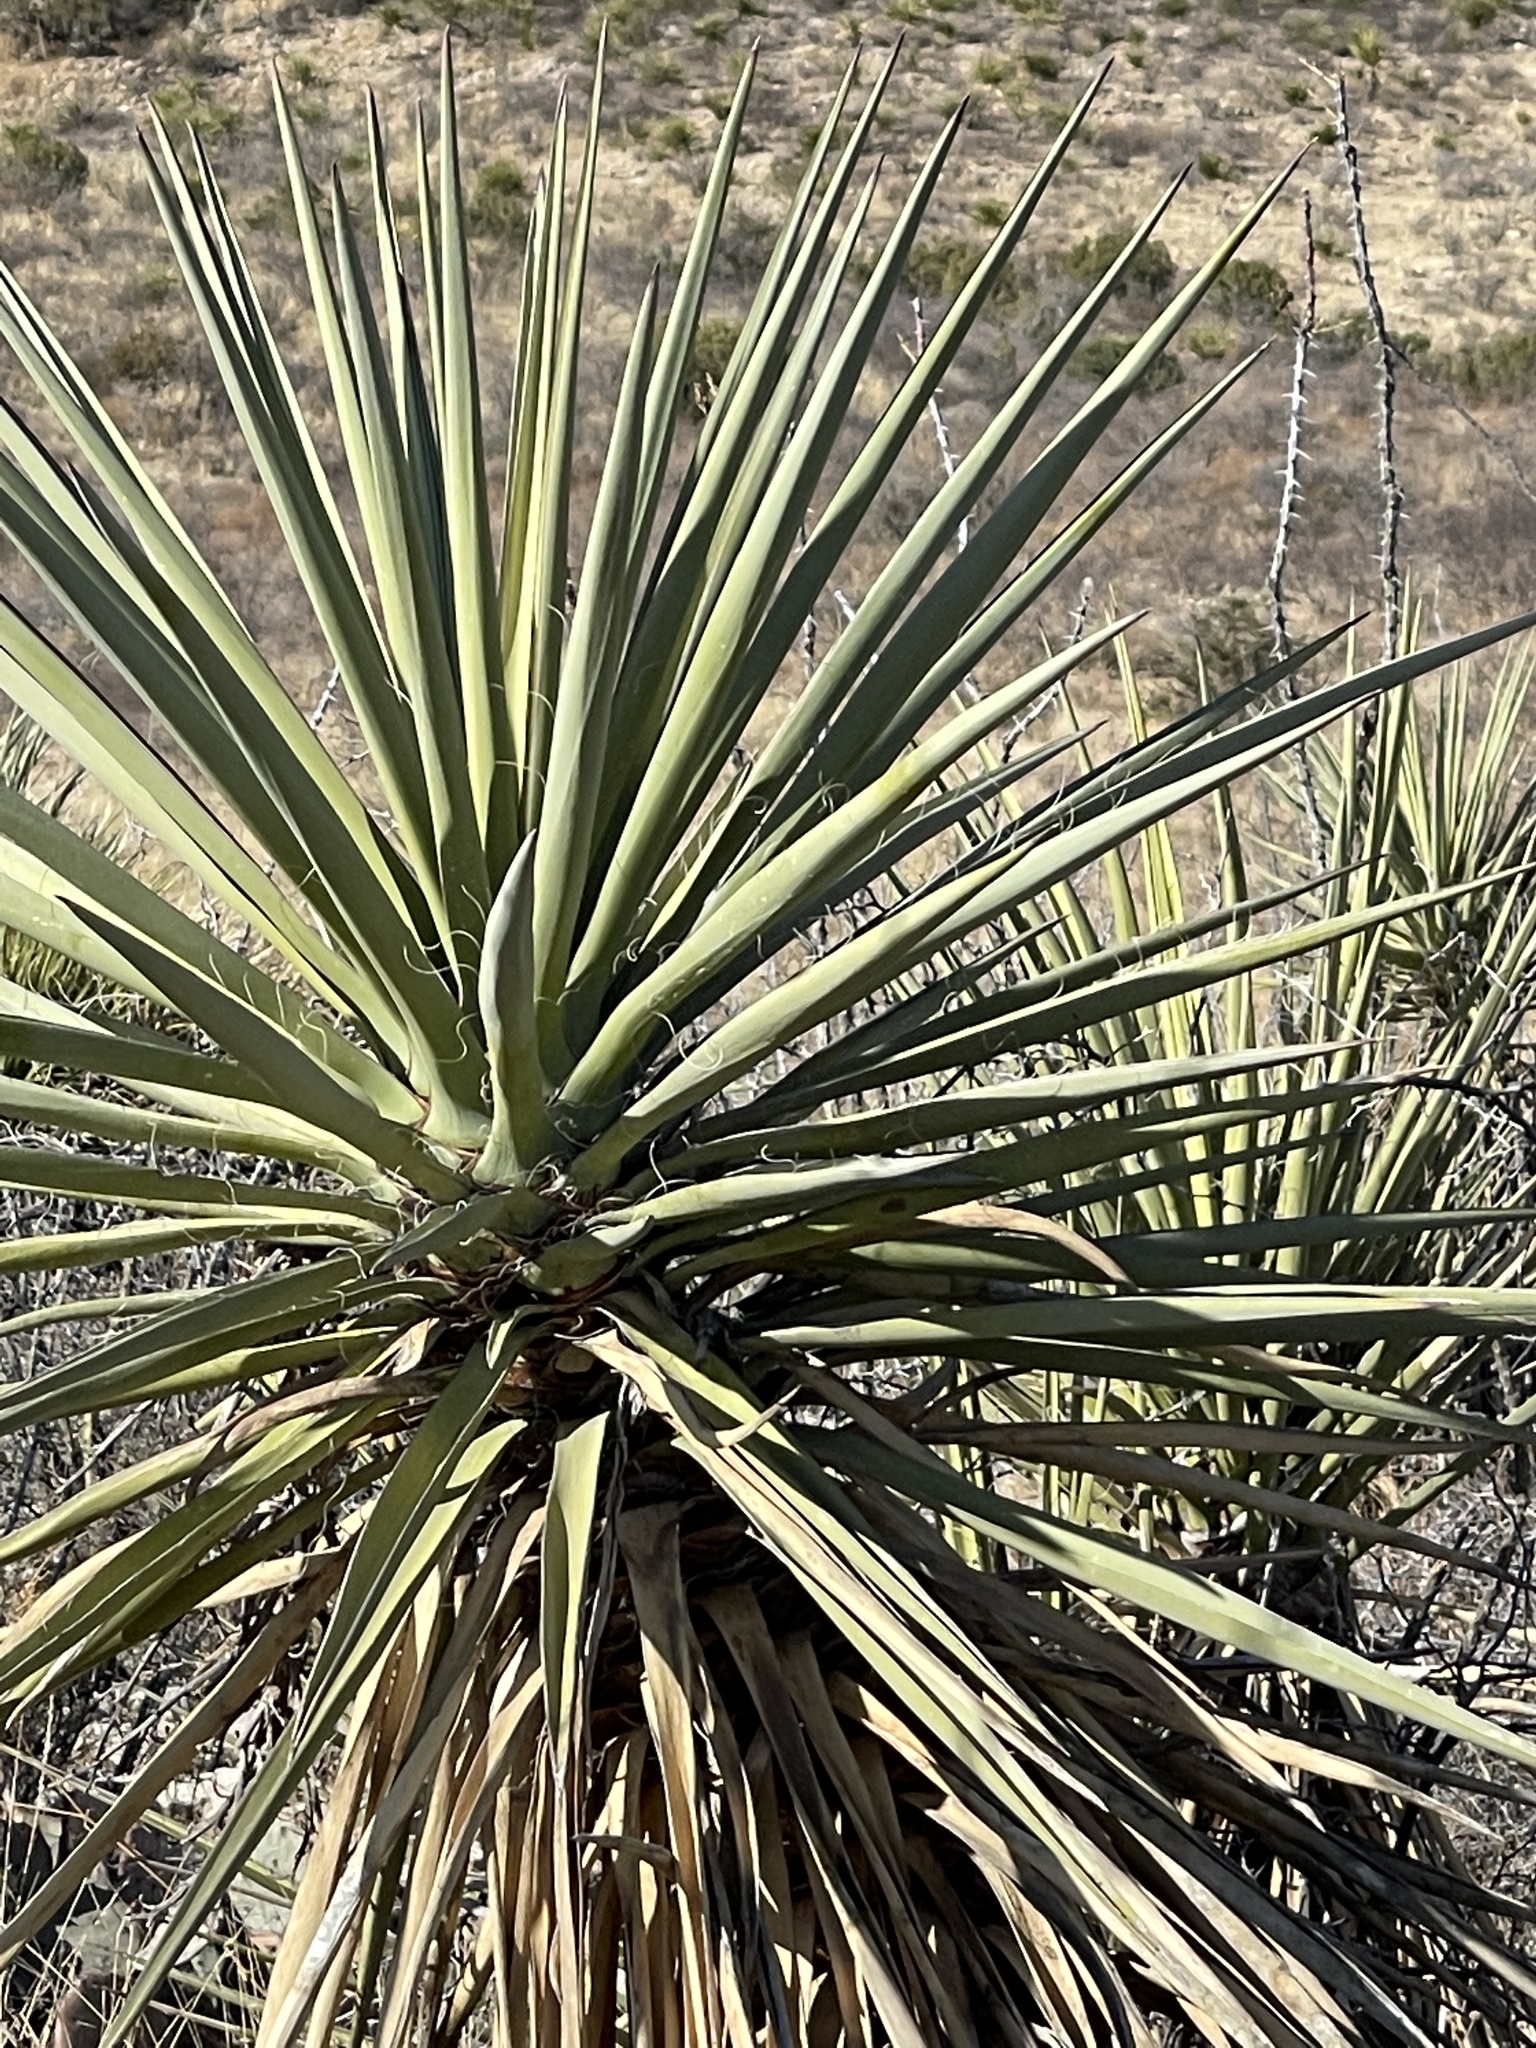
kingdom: Plantae
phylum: Tracheophyta
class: Liliopsida
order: Asparagales
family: Asparagaceae
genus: Yucca
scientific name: Yucca treculiana
